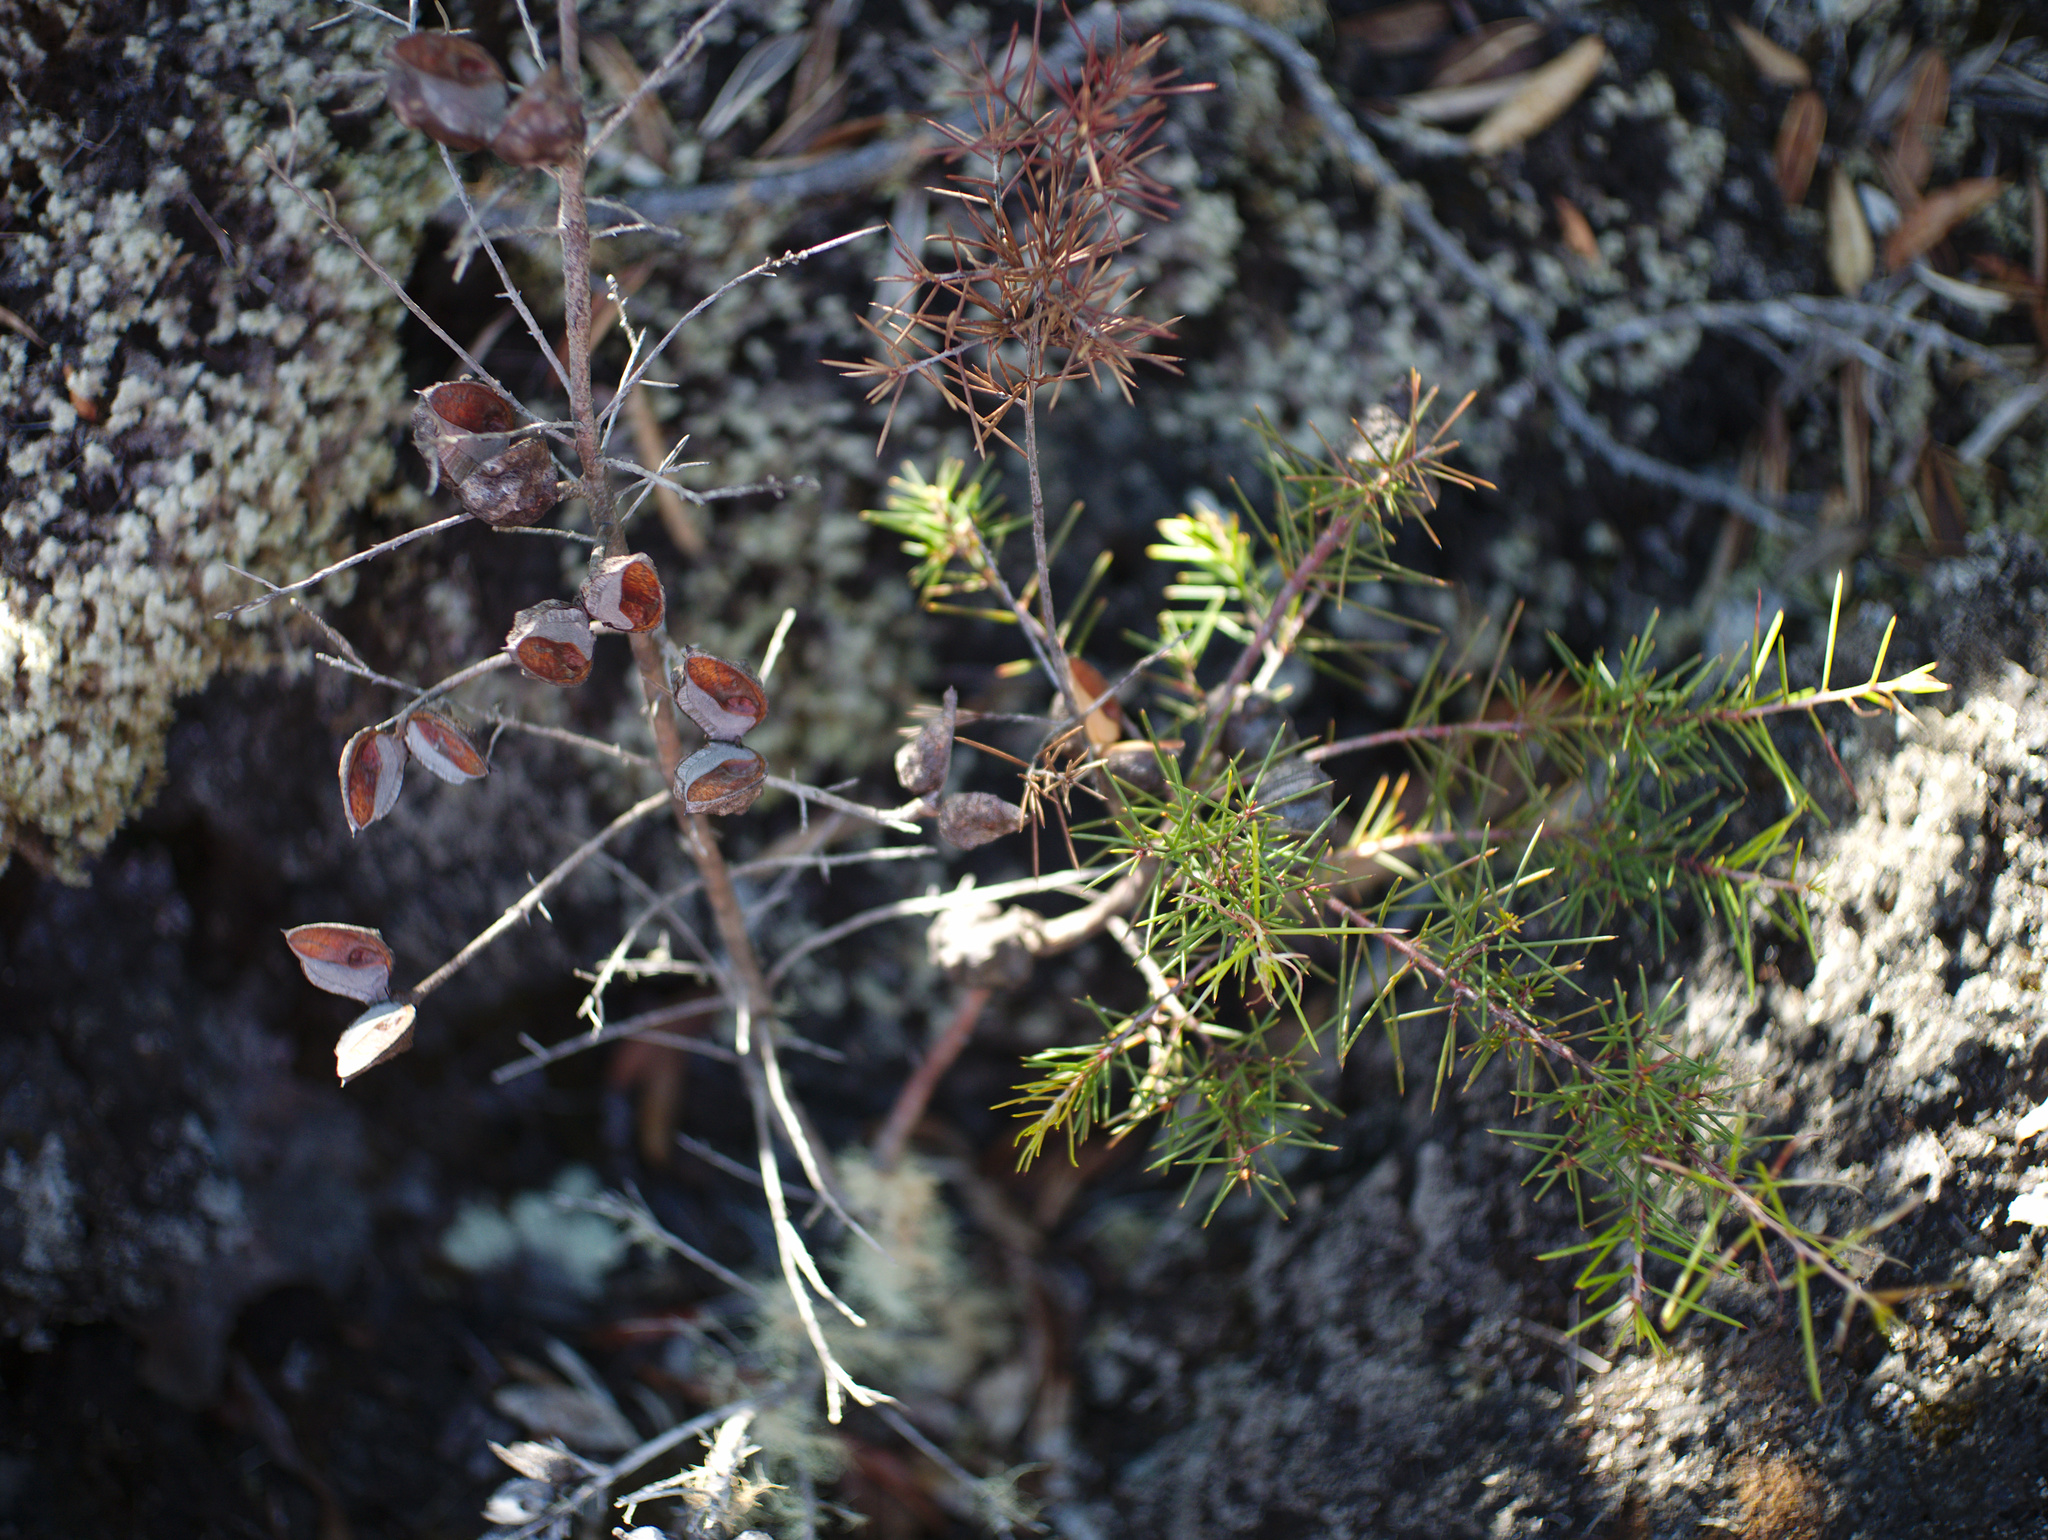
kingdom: Plantae
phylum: Tracheophyta
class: Magnoliopsida
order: Proteales
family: Proteaceae
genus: Hakea
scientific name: Hakea sericea
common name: Needle bush
